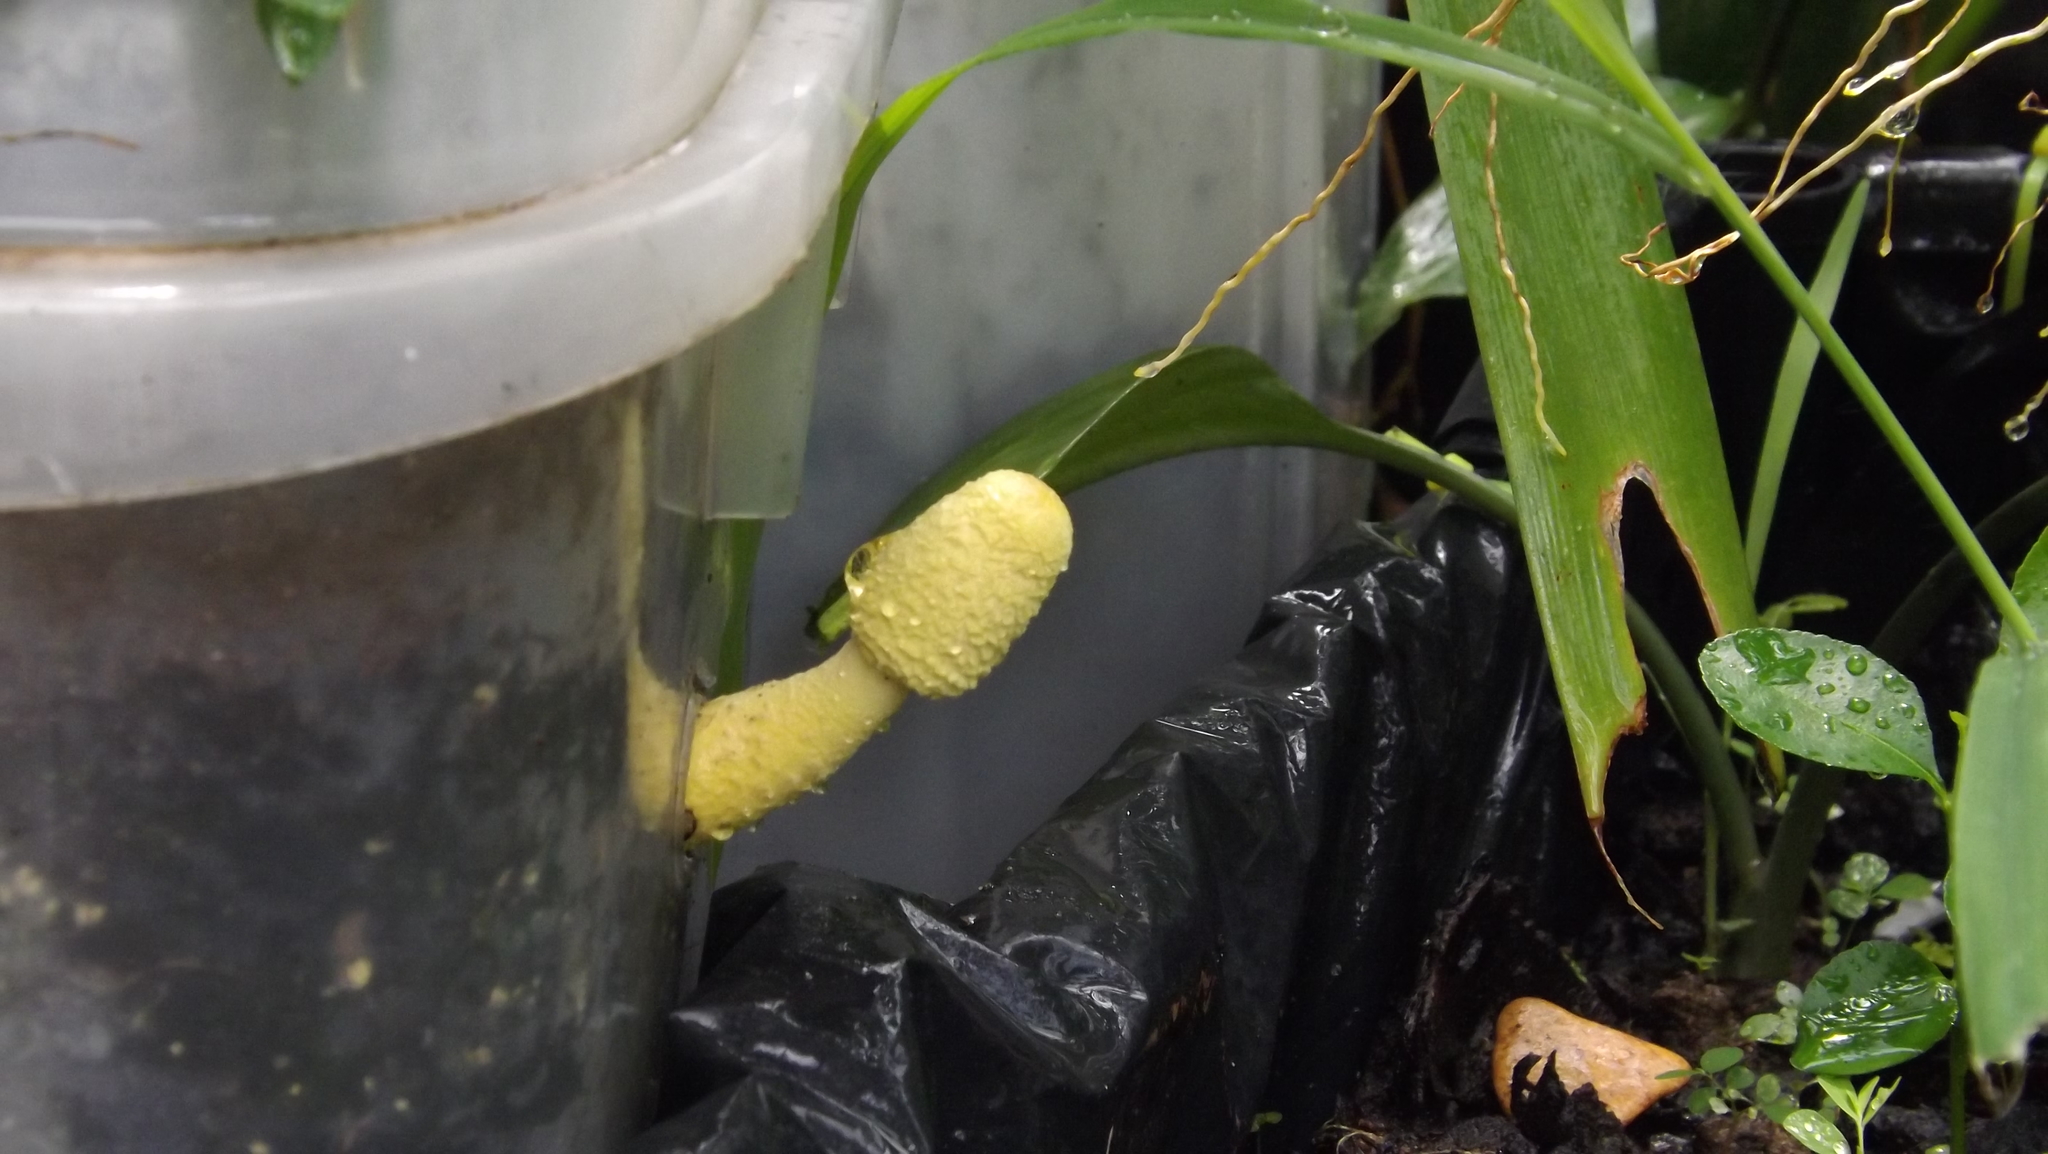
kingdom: Fungi
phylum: Basidiomycota
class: Agaricomycetes
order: Agaricales
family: Agaricaceae
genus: Leucocoprinus
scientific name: Leucocoprinus birnbaumii
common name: Plantpot dapperling
